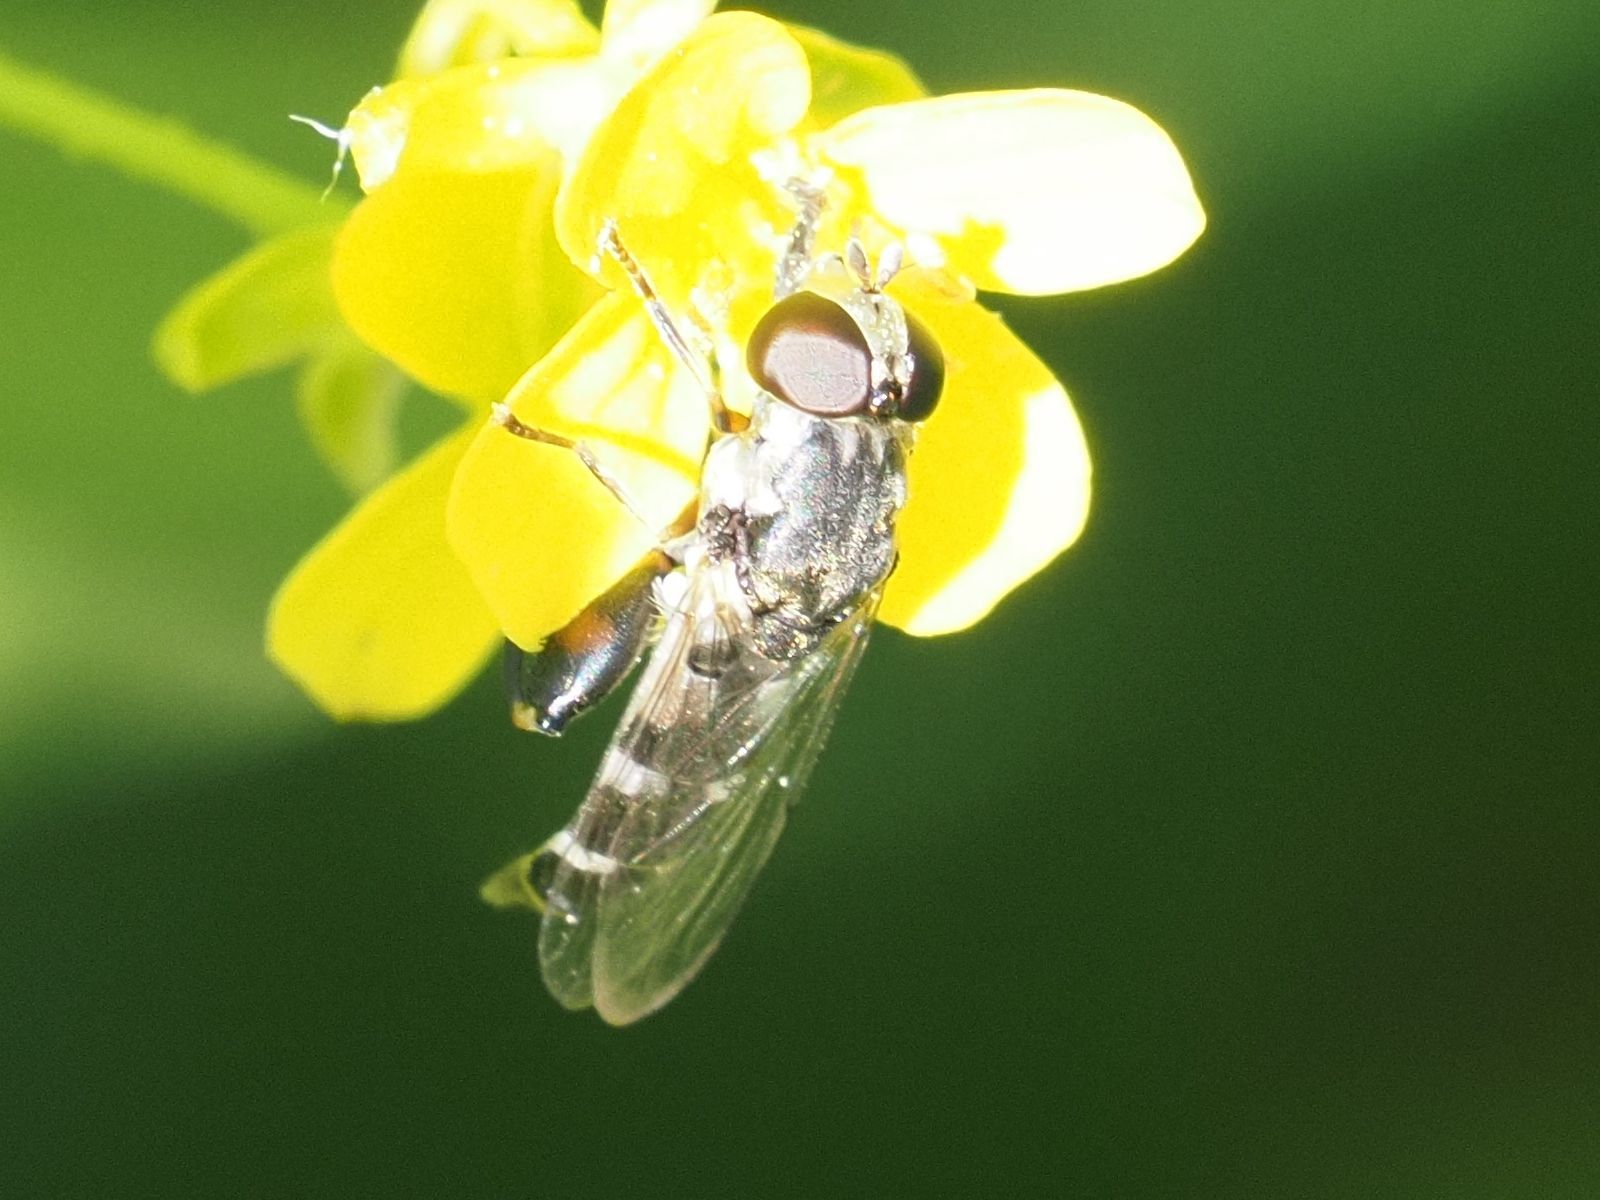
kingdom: Animalia
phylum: Arthropoda
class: Insecta
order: Diptera
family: Syrphidae
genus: Syritta
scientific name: Syritta pipiens
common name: Hover fly
